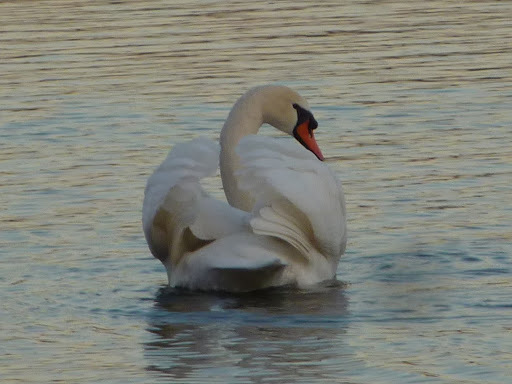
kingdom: Animalia
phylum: Chordata
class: Aves
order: Anseriformes
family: Anatidae
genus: Cygnus
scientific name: Cygnus olor
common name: Mute swan
